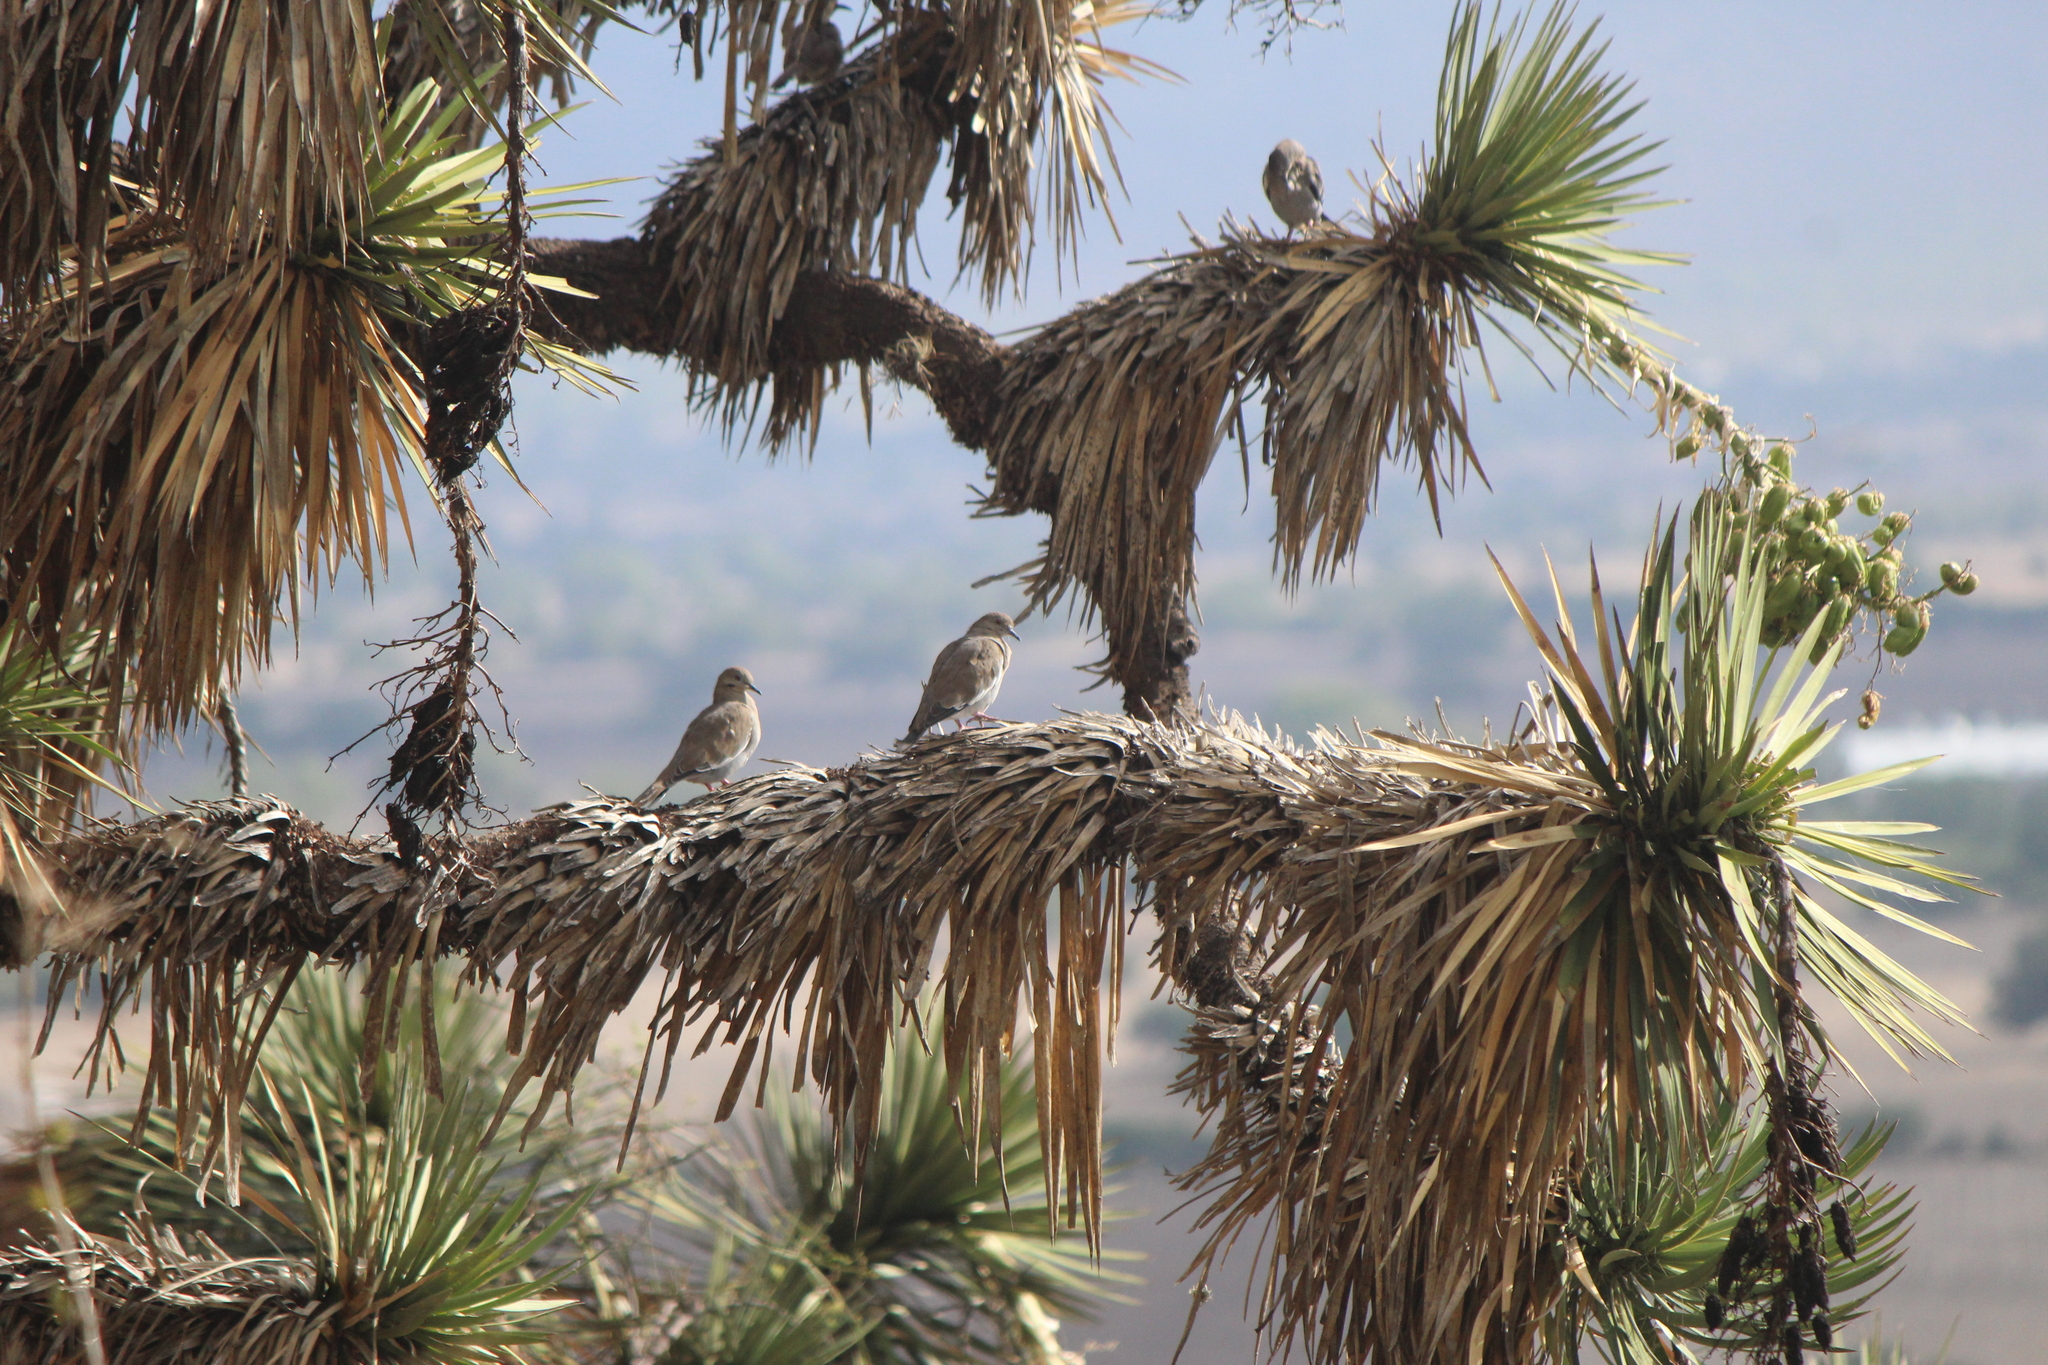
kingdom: Animalia
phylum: Chordata
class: Aves
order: Columbiformes
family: Columbidae
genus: Zenaida
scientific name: Zenaida asiatica
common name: White-winged dove
